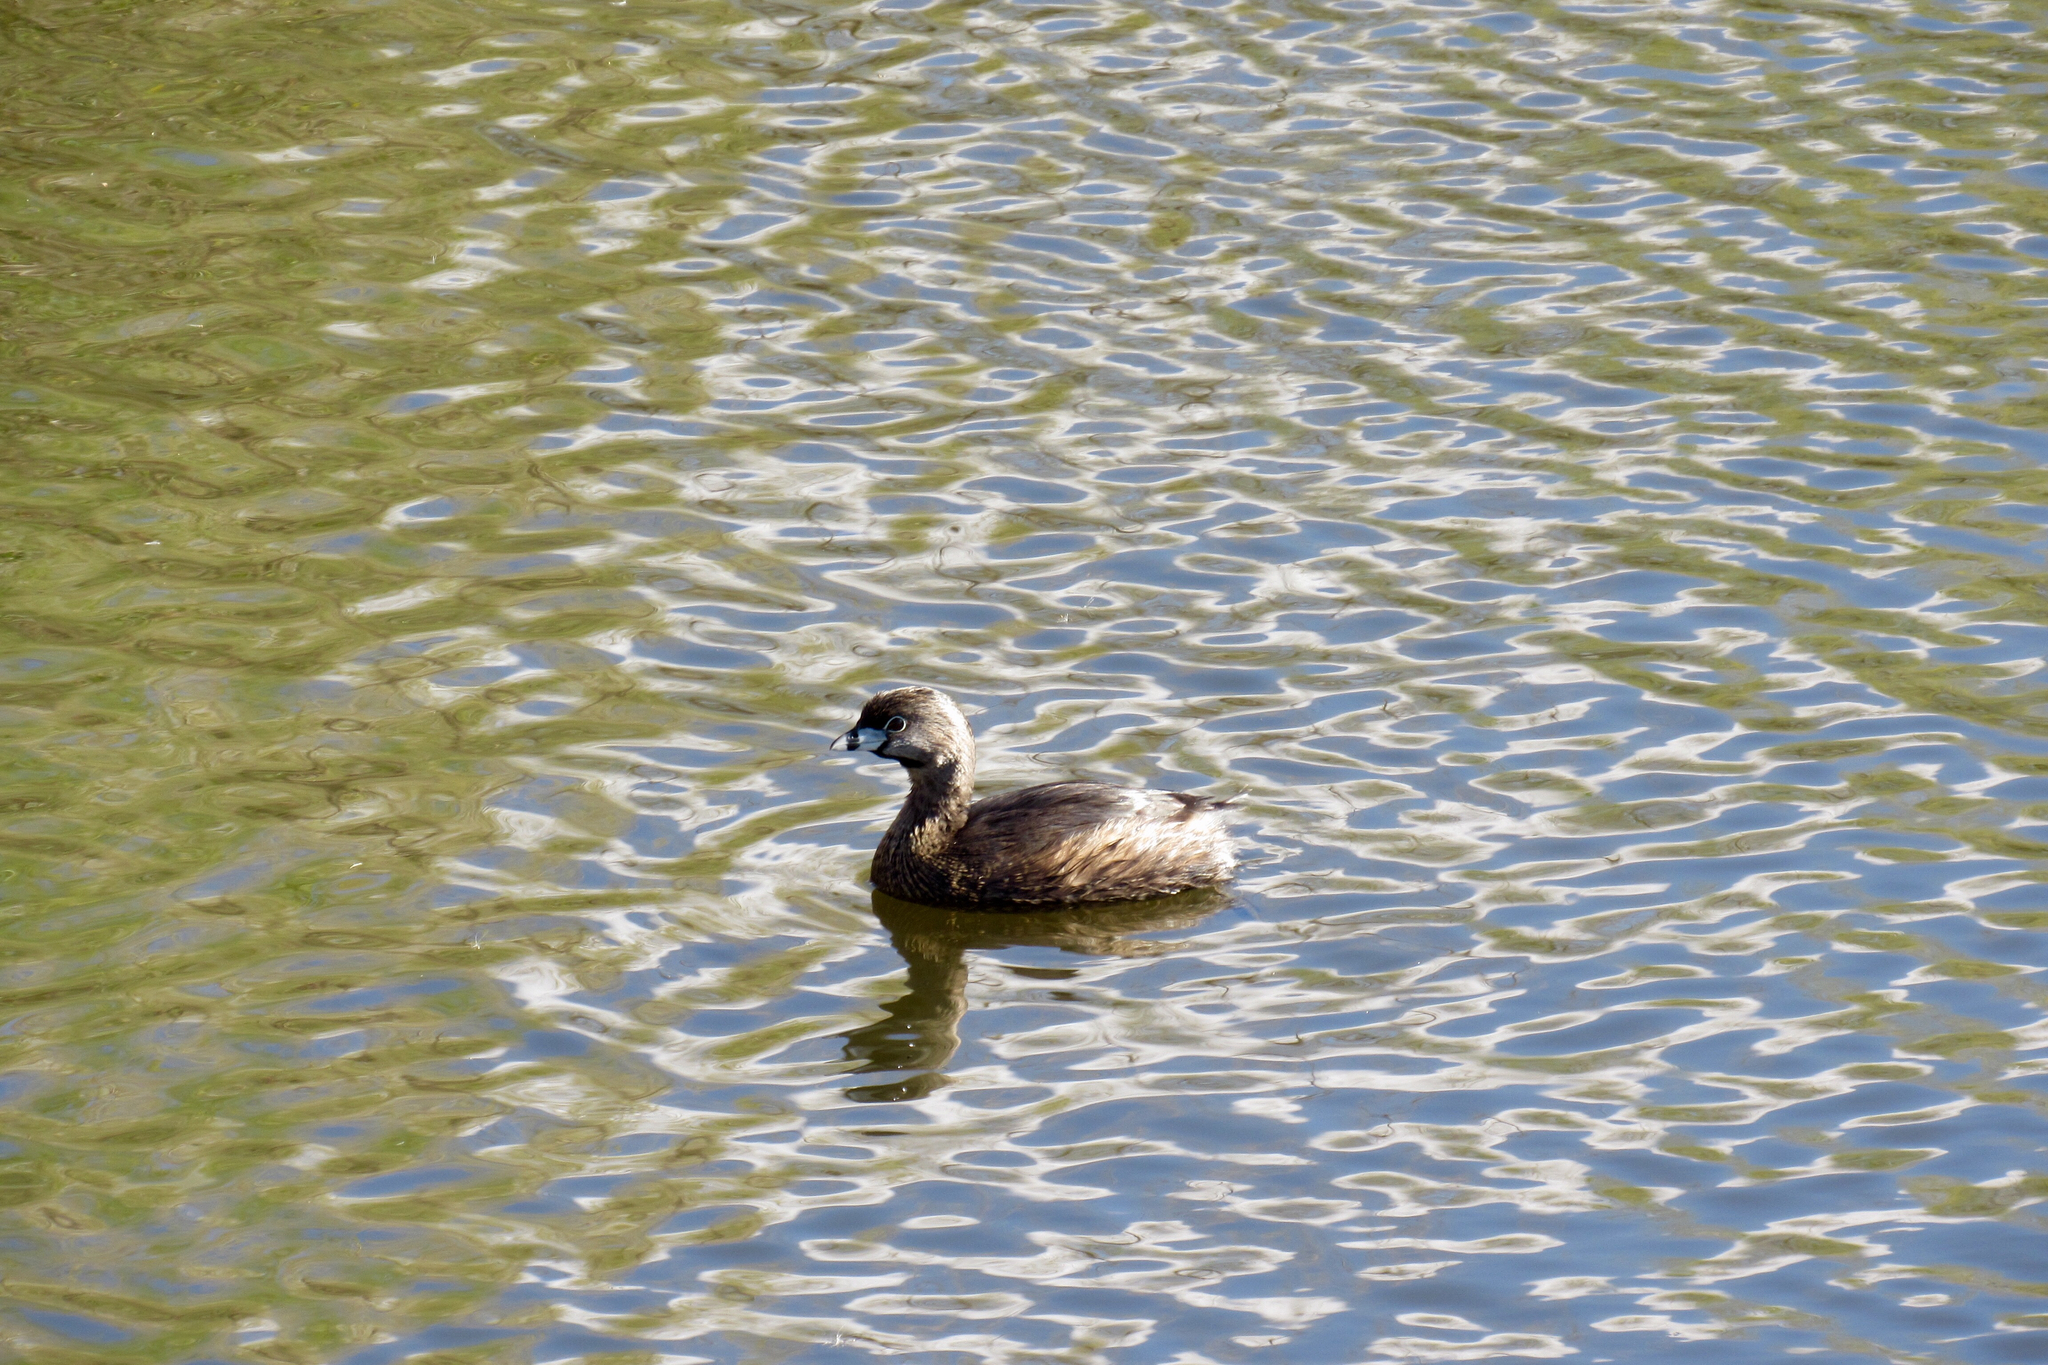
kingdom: Animalia
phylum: Chordata
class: Aves
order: Podicipediformes
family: Podicipedidae
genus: Podilymbus
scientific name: Podilymbus podiceps
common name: Pied-billed grebe
